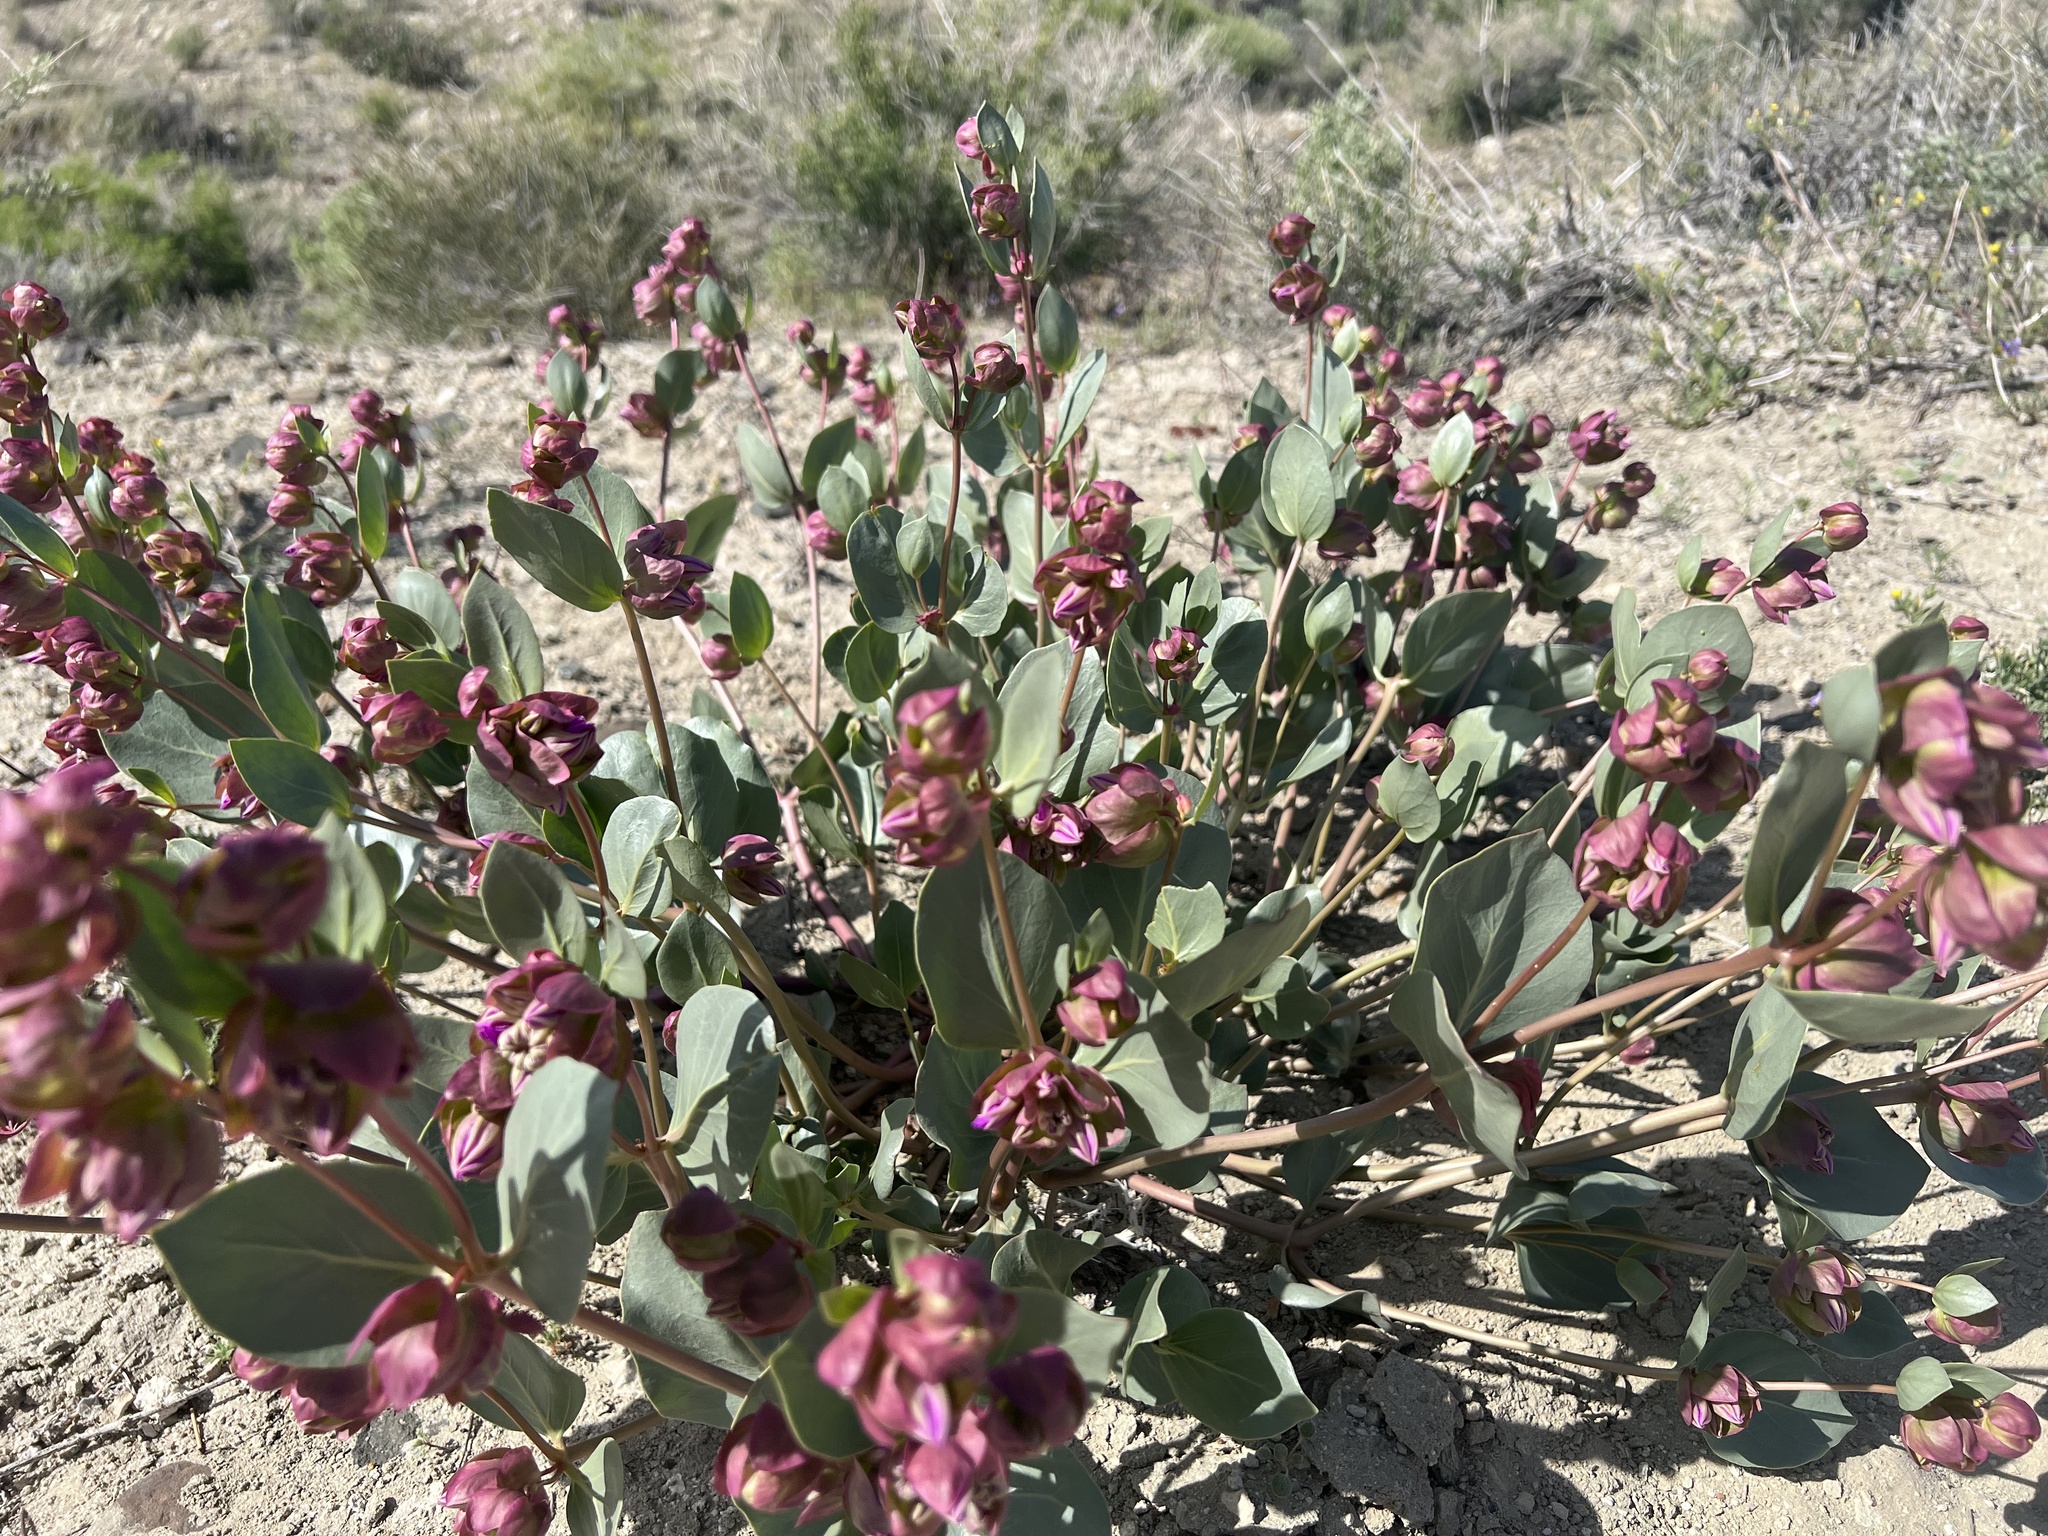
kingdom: Plantae
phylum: Tracheophyta
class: Magnoliopsida
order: Caryophyllales
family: Nyctaginaceae
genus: Mirabilis
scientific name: Mirabilis alipes
